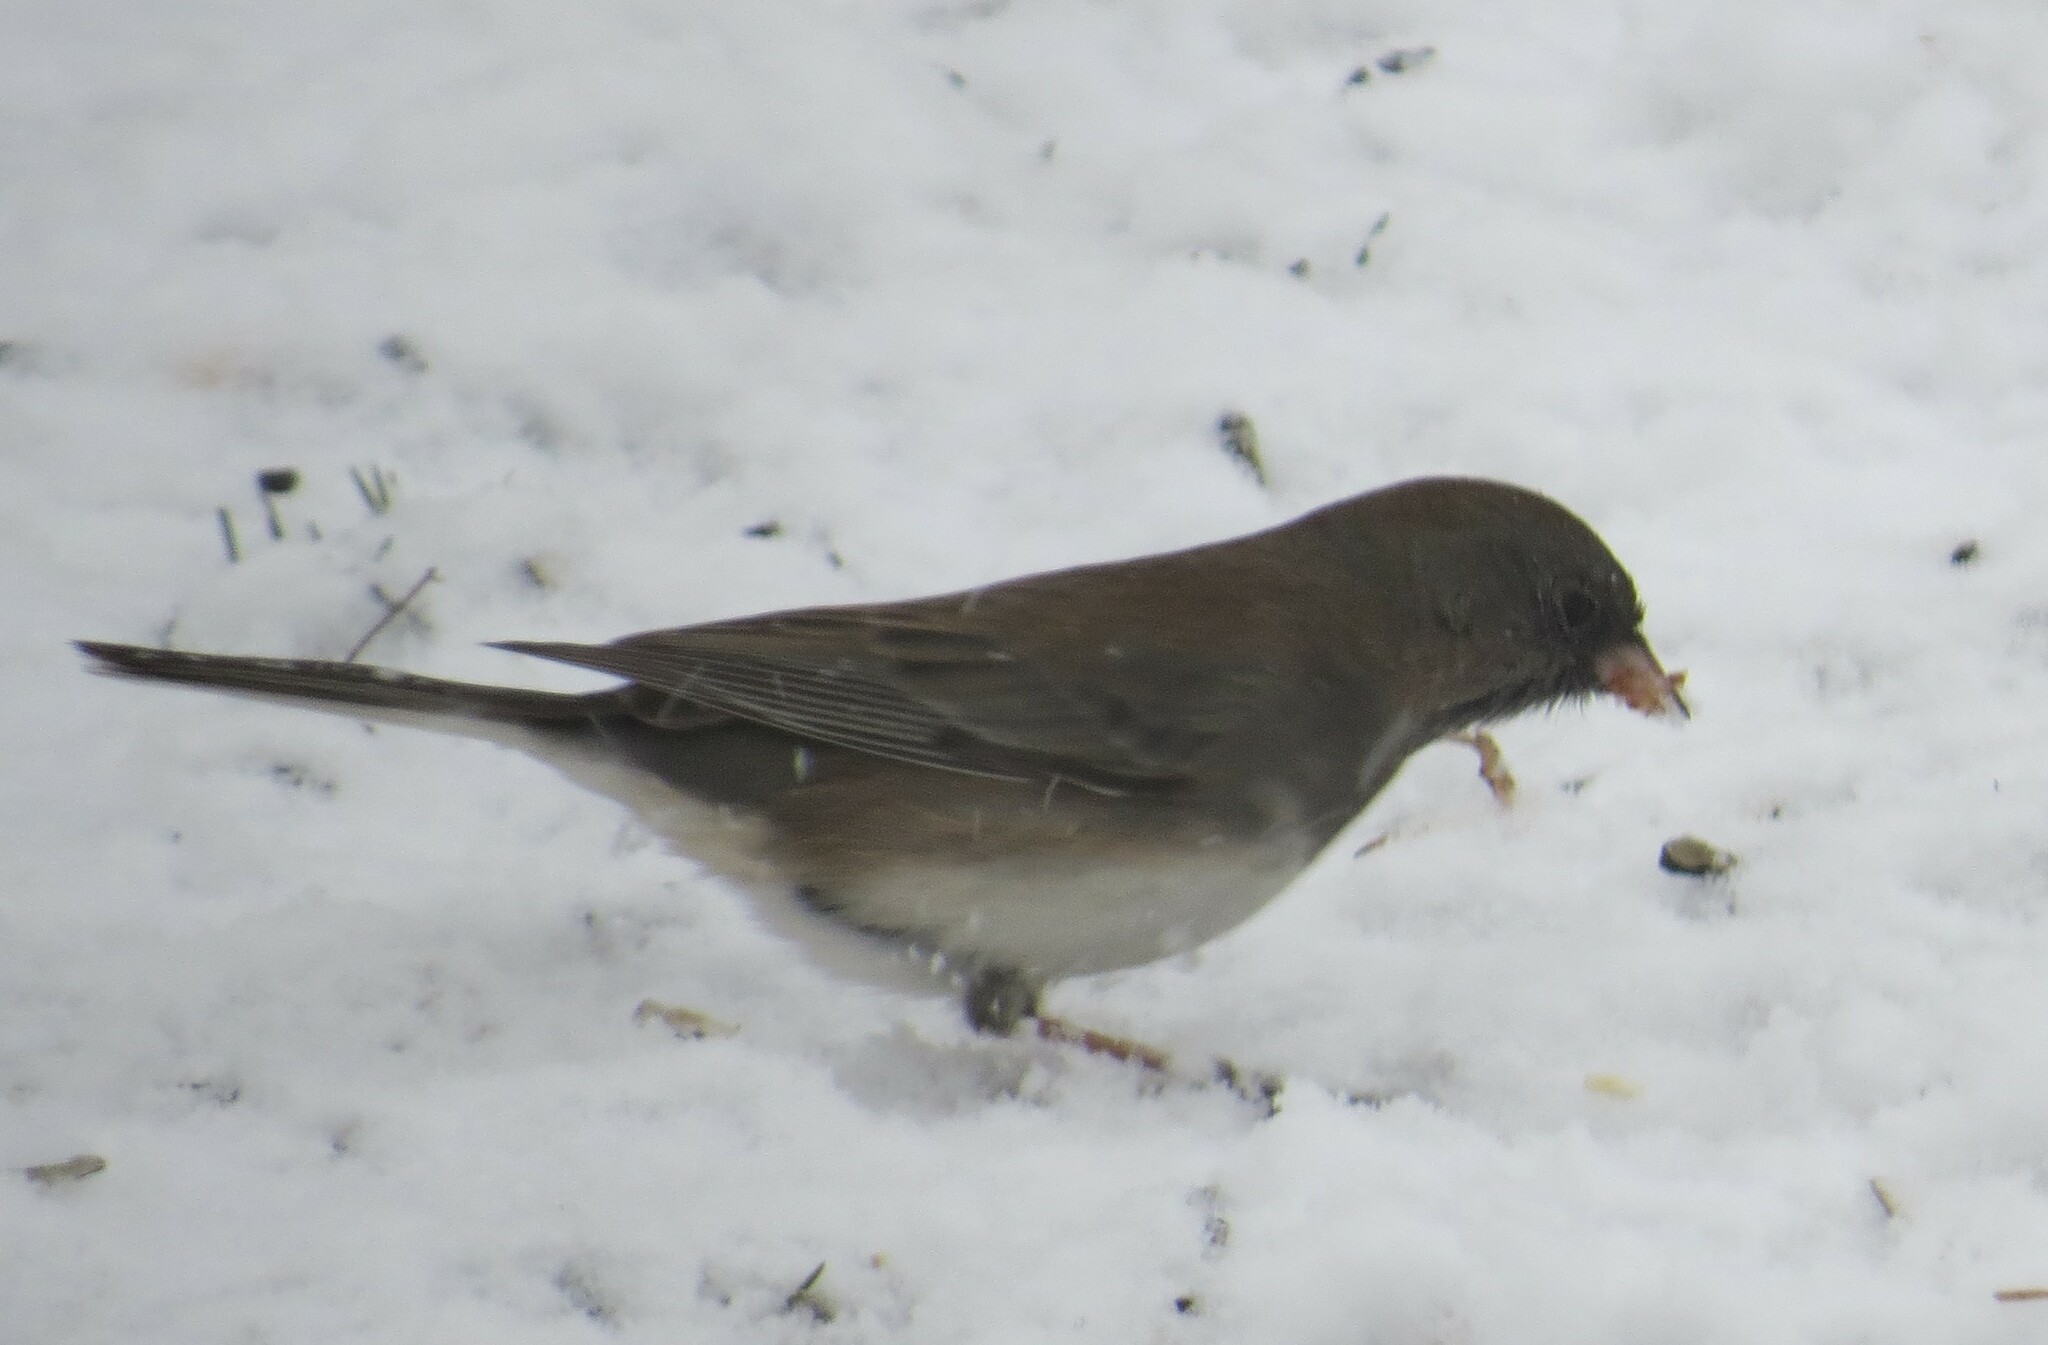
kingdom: Animalia
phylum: Chordata
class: Aves
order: Passeriformes
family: Passerellidae
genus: Junco
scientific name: Junco hyemalis
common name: Dark-eyed junco
